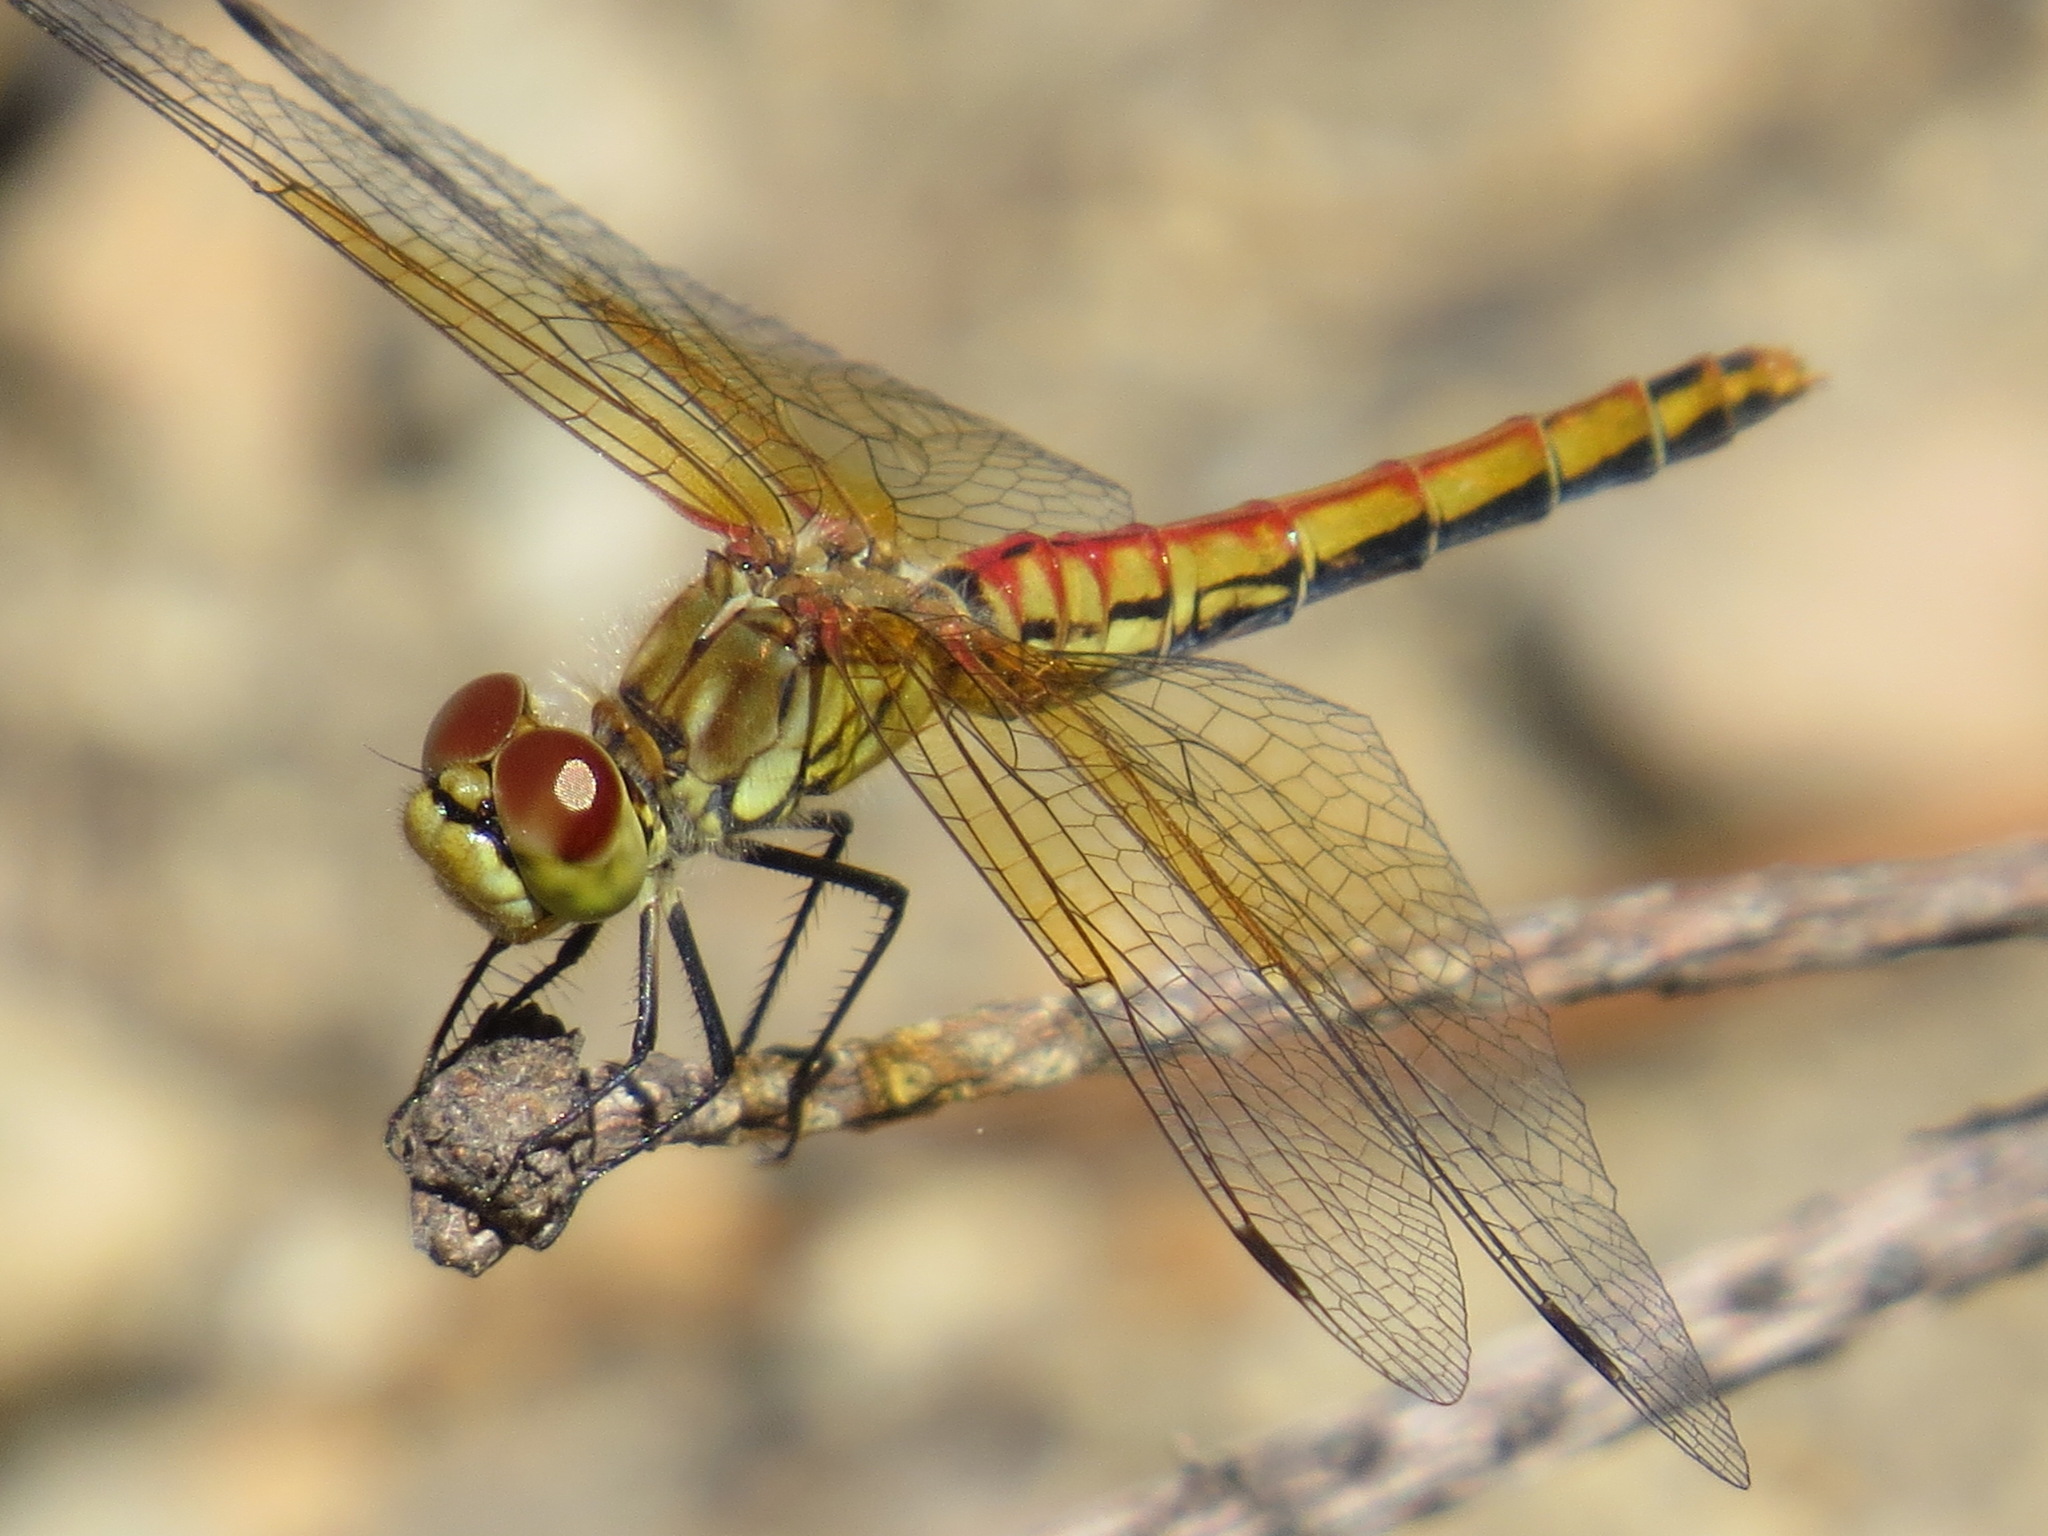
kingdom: Animalia
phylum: Arthropoda
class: Insecta
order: Odonata
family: Libellulidae
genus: Sympetrum
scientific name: Sympetrum semicinctum
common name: Band-winged meadowhawk
